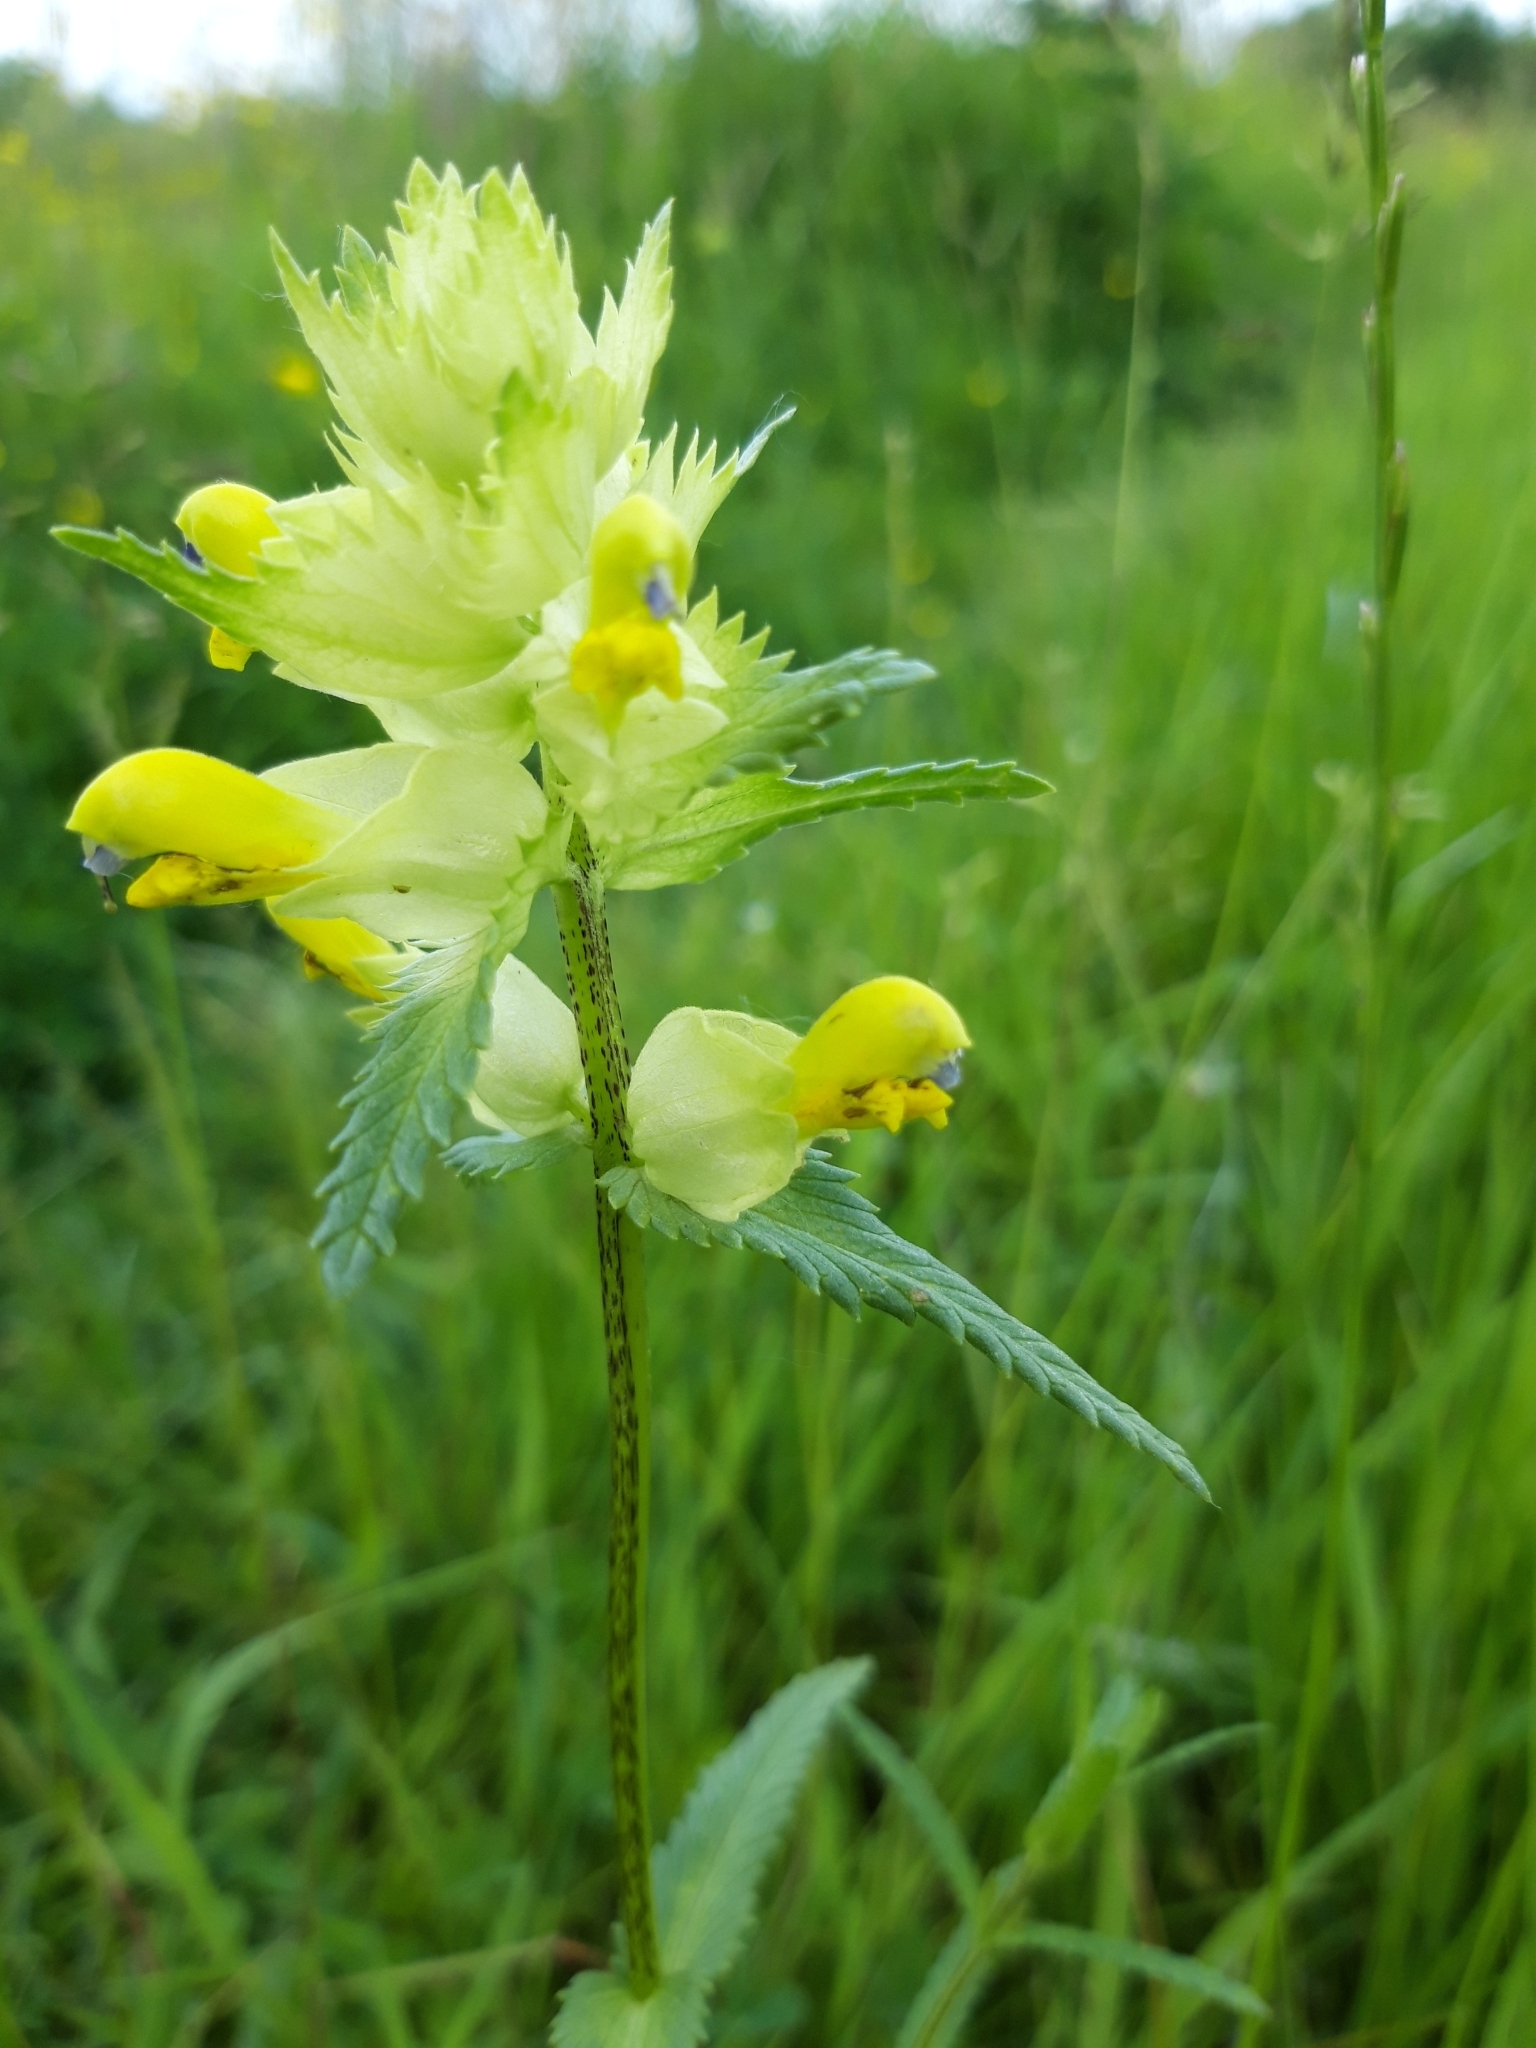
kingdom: Plantae
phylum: Tracheophyta
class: Magnoliopsida
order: Lamiales
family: Orobanchaceae
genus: Rhinanthus
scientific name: Rhinanthus serotinus
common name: Late-flowering yellow rattle
